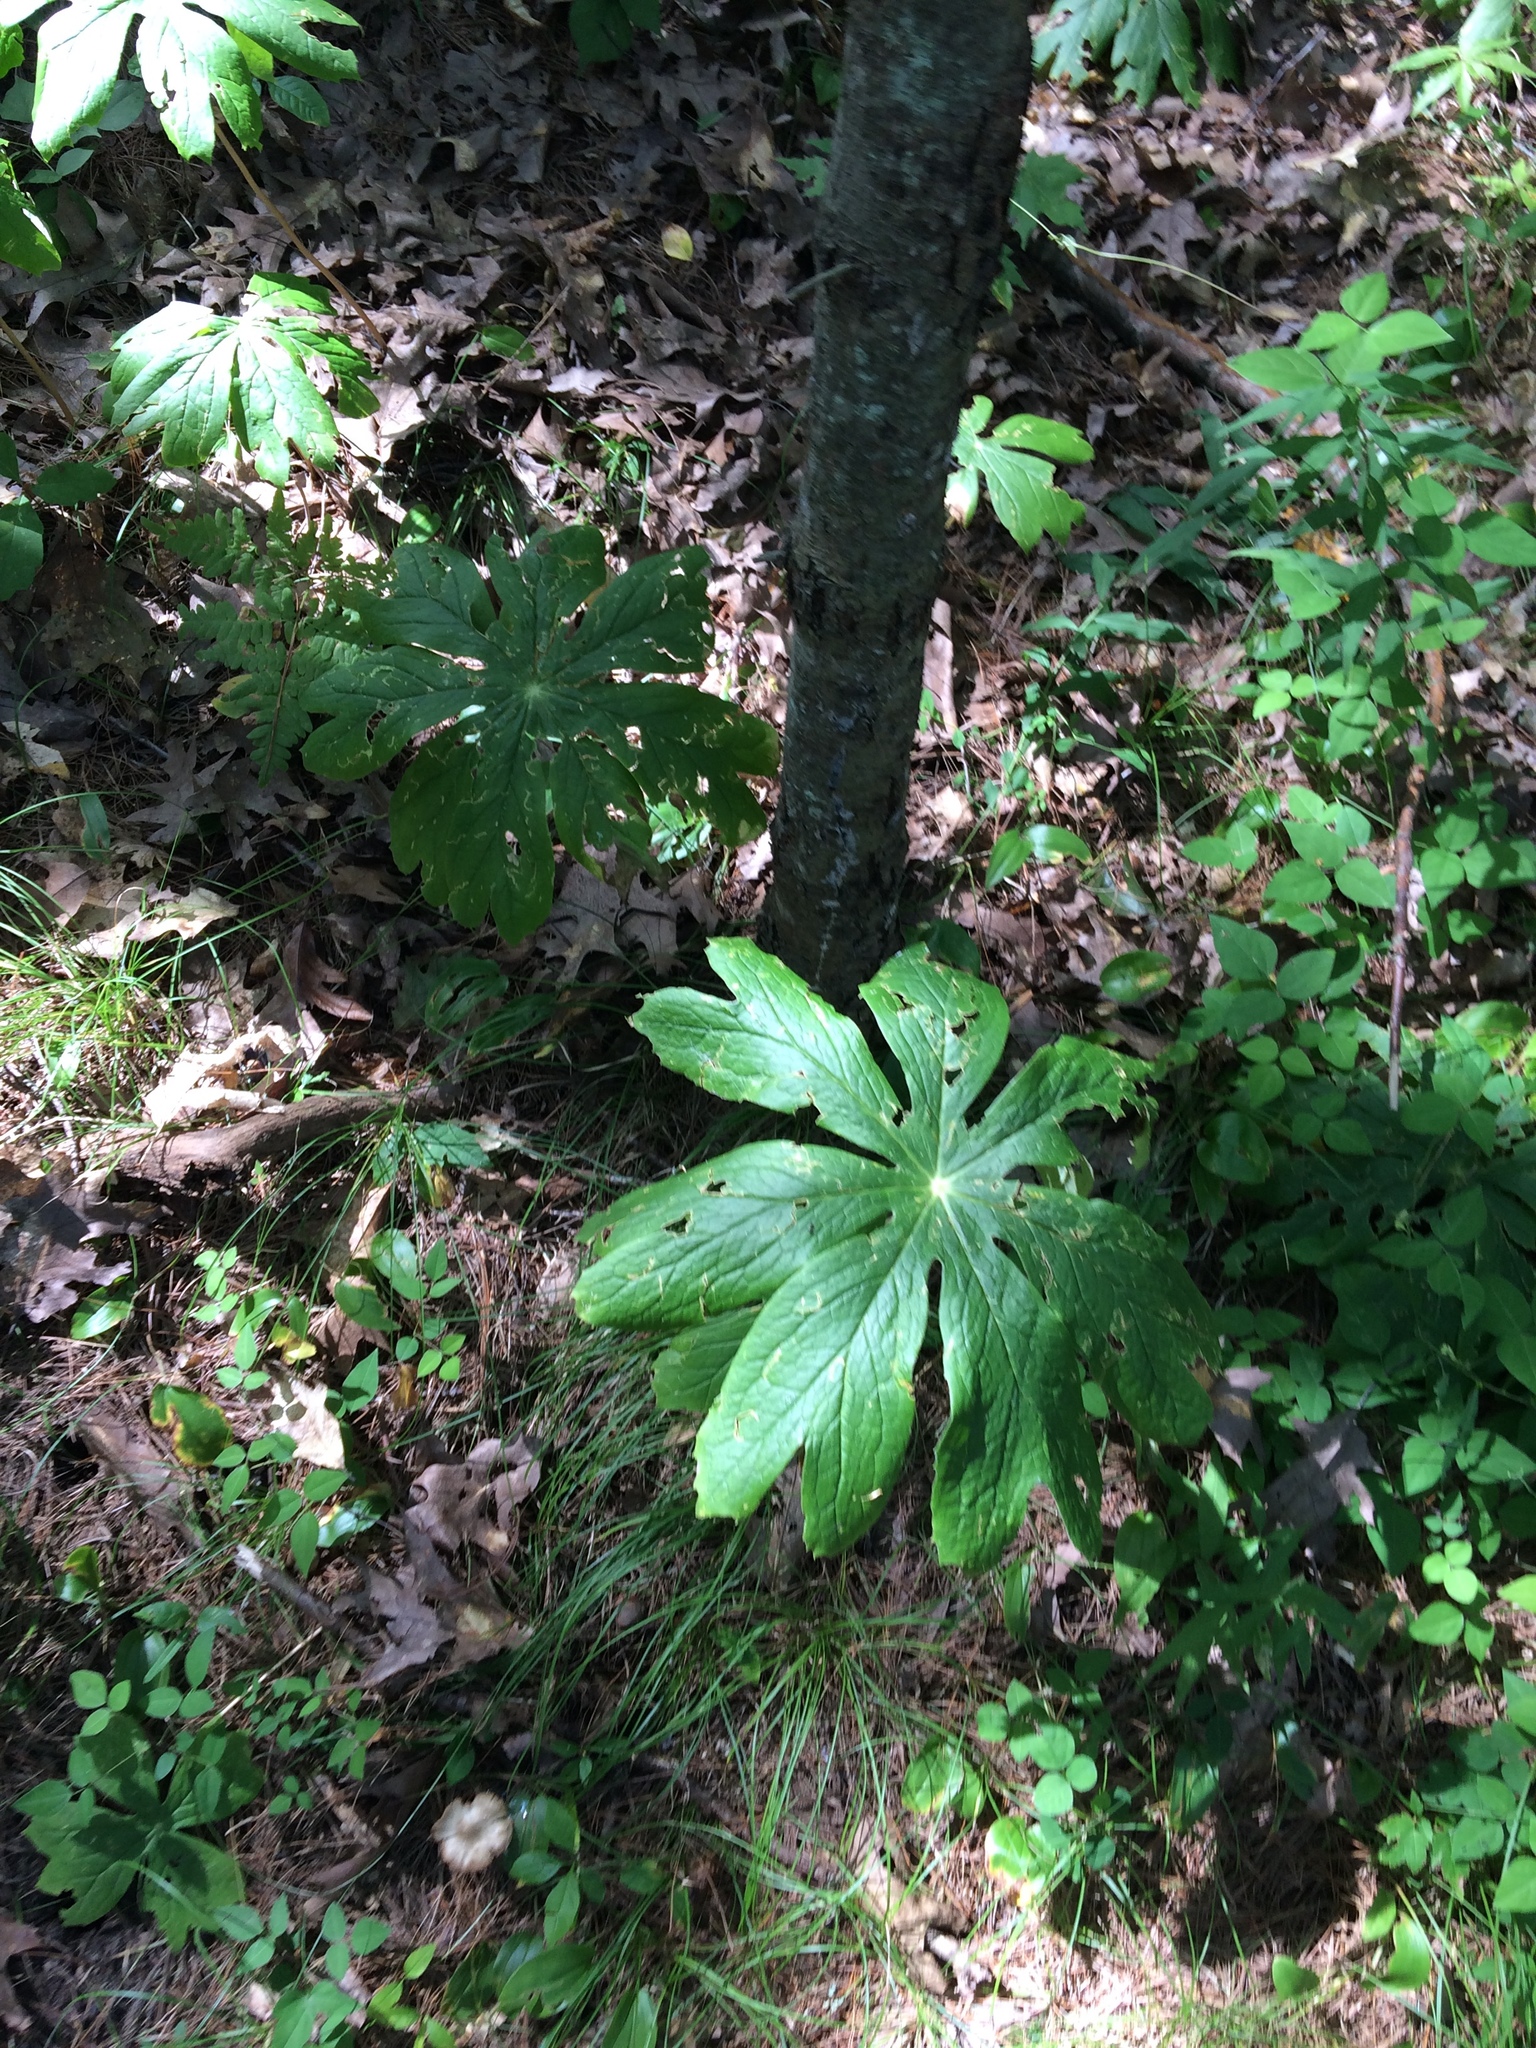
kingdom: Plantae
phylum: Tracheophyta
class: Magnoliopsida
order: Ranunculales
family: Berberidaceae
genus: Podophyllum
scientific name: Podophyllum peltatum
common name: Wild mandrake
